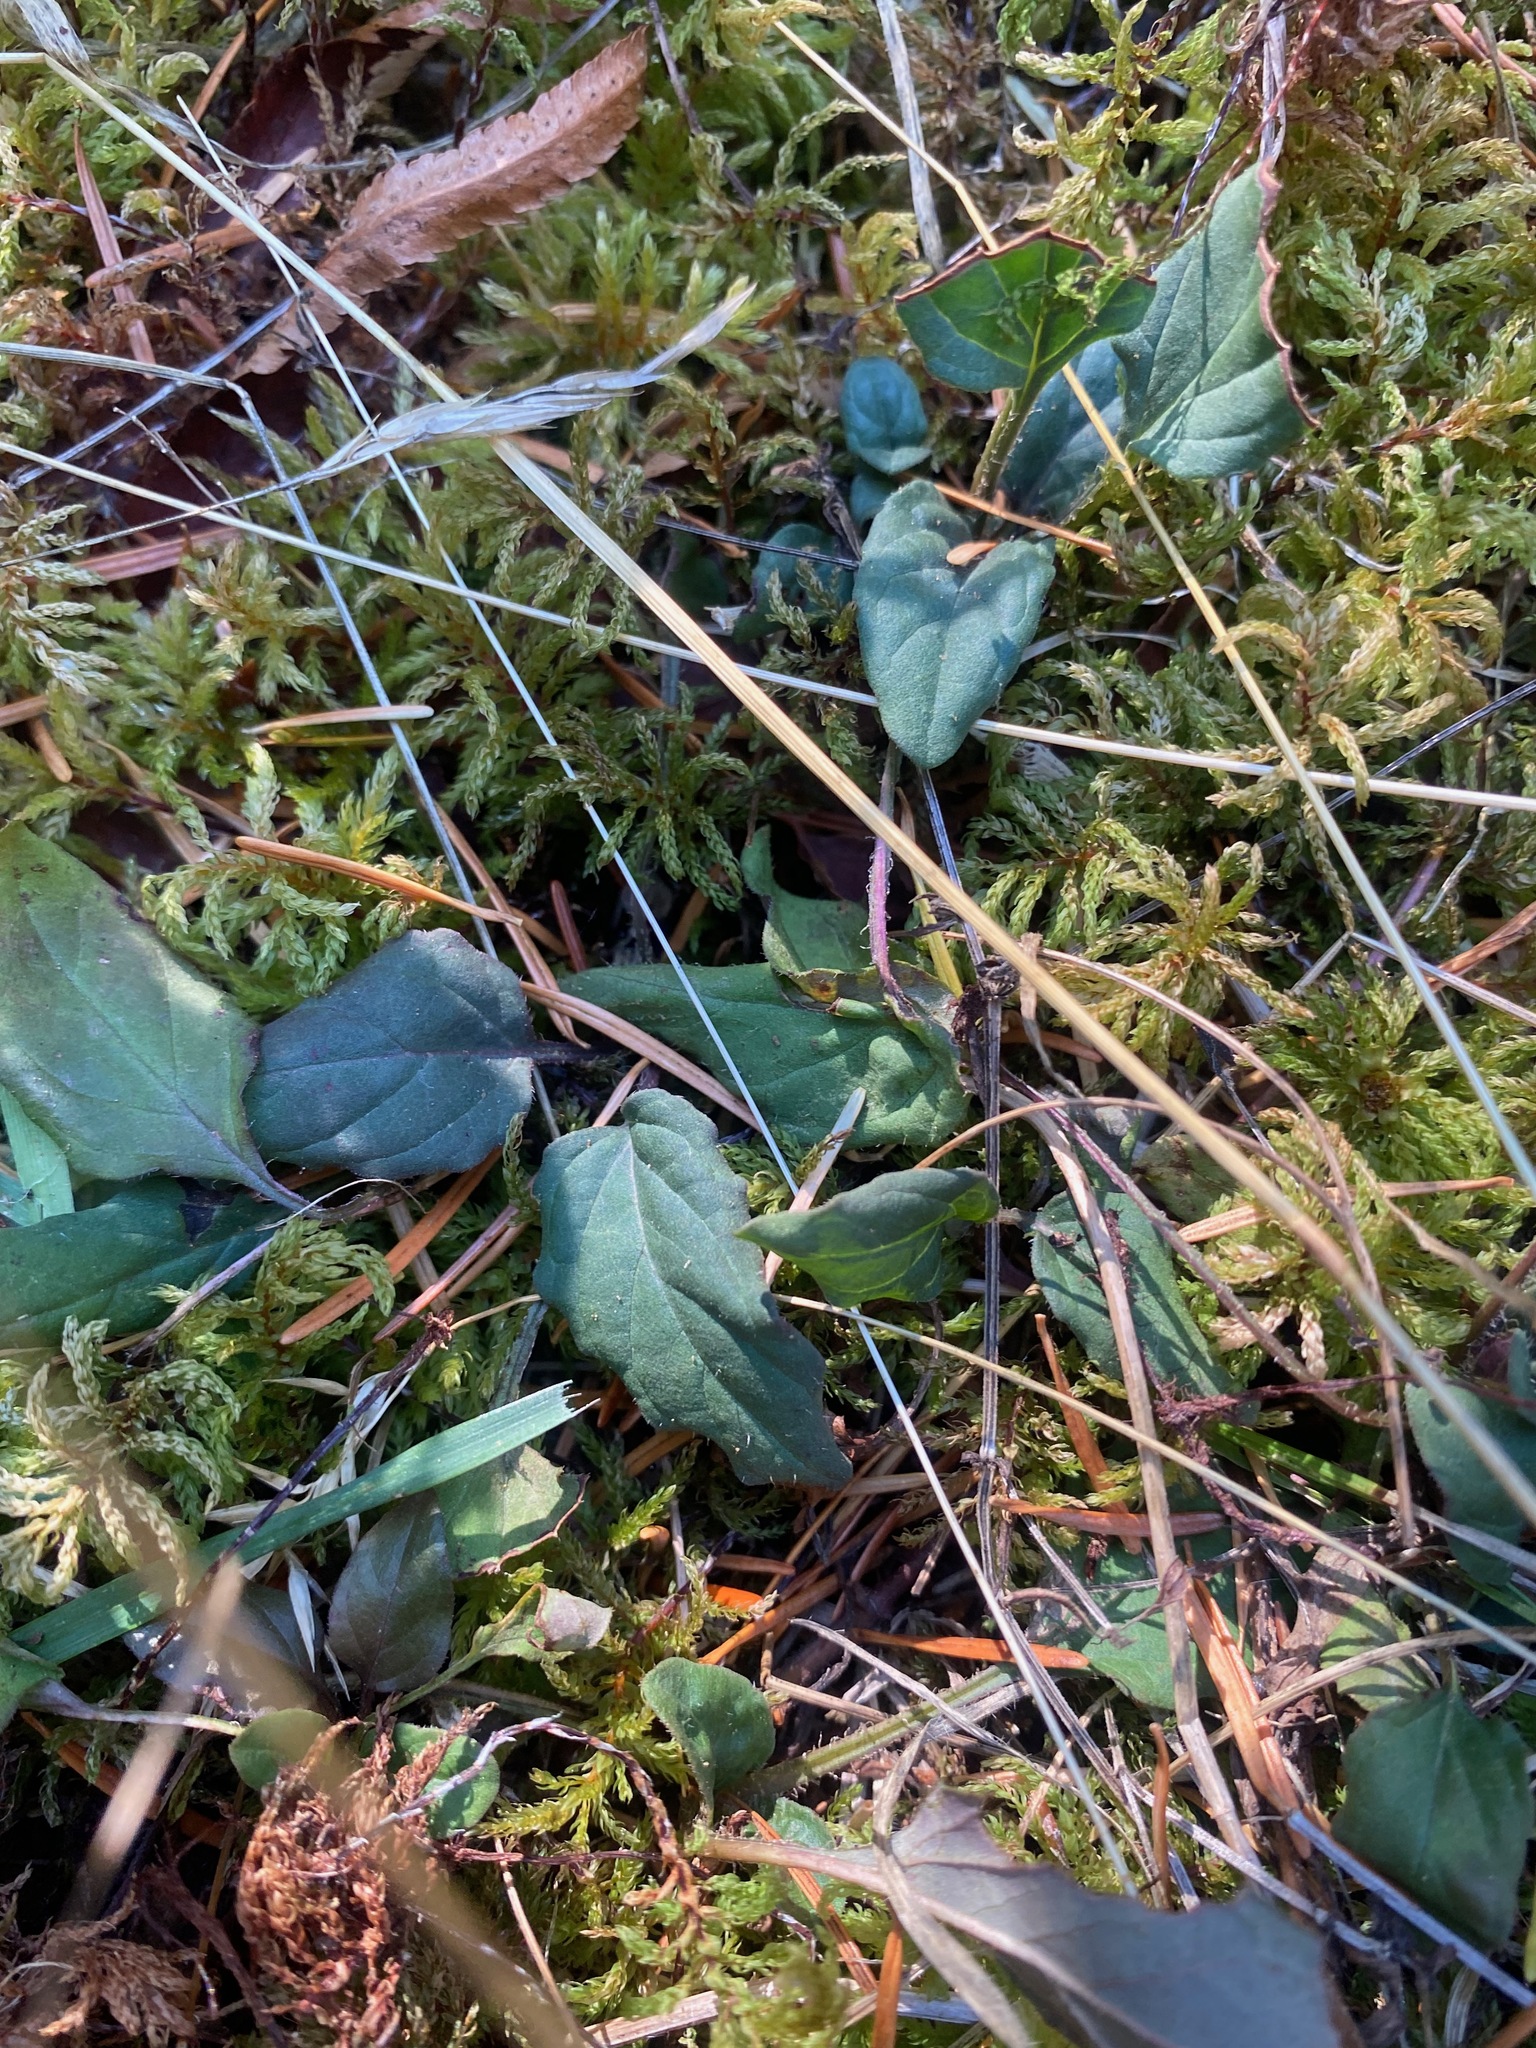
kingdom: Plantae
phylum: Tracheophyta
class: Magnoliopsida
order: Lamiales
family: Lamiaceae
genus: Prunella
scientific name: Prunella vulgaris
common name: Heal-all
